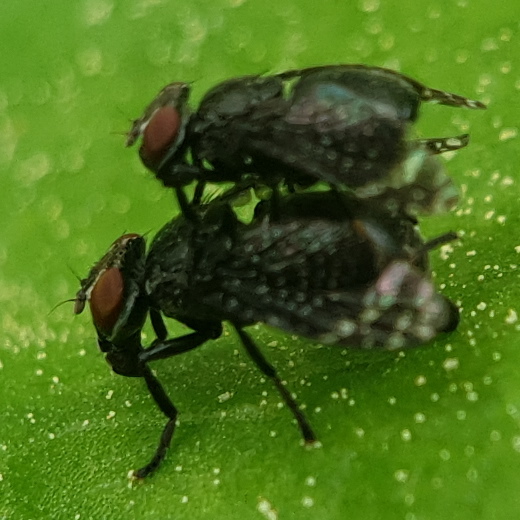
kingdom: Animalia
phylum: Arthropoda
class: Insecta
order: Diptera
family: Platystomatidae
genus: Platystoma
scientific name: Platystoma arcuatum
